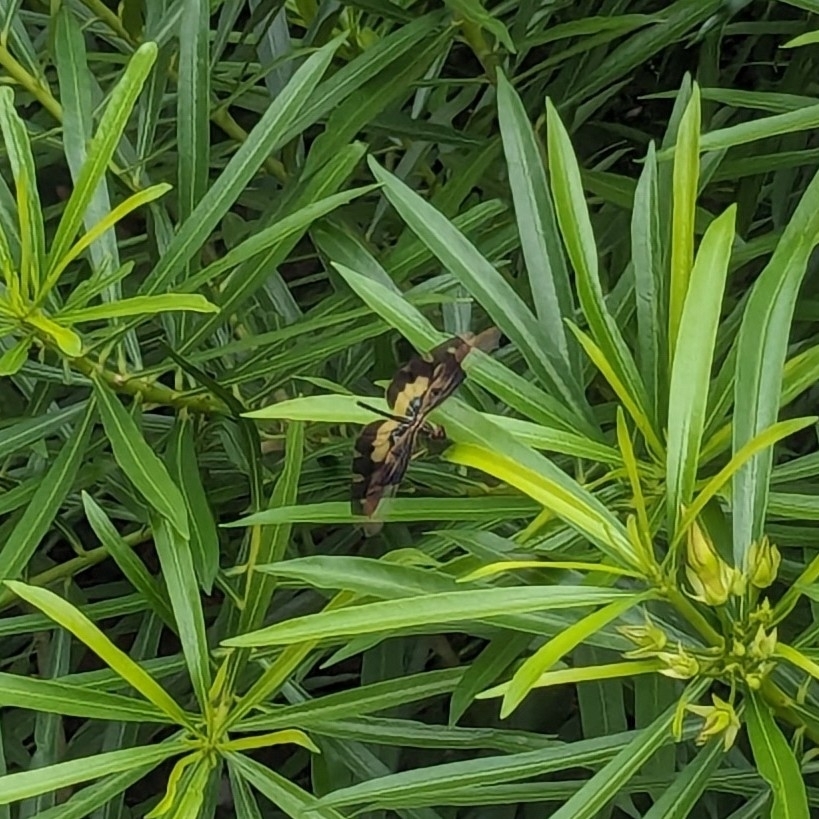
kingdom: Animalia
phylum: Arthropoda
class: Insecta
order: Odonata
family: Libellulidae
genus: Rhyothemis
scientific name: Rhyothemis variegata
